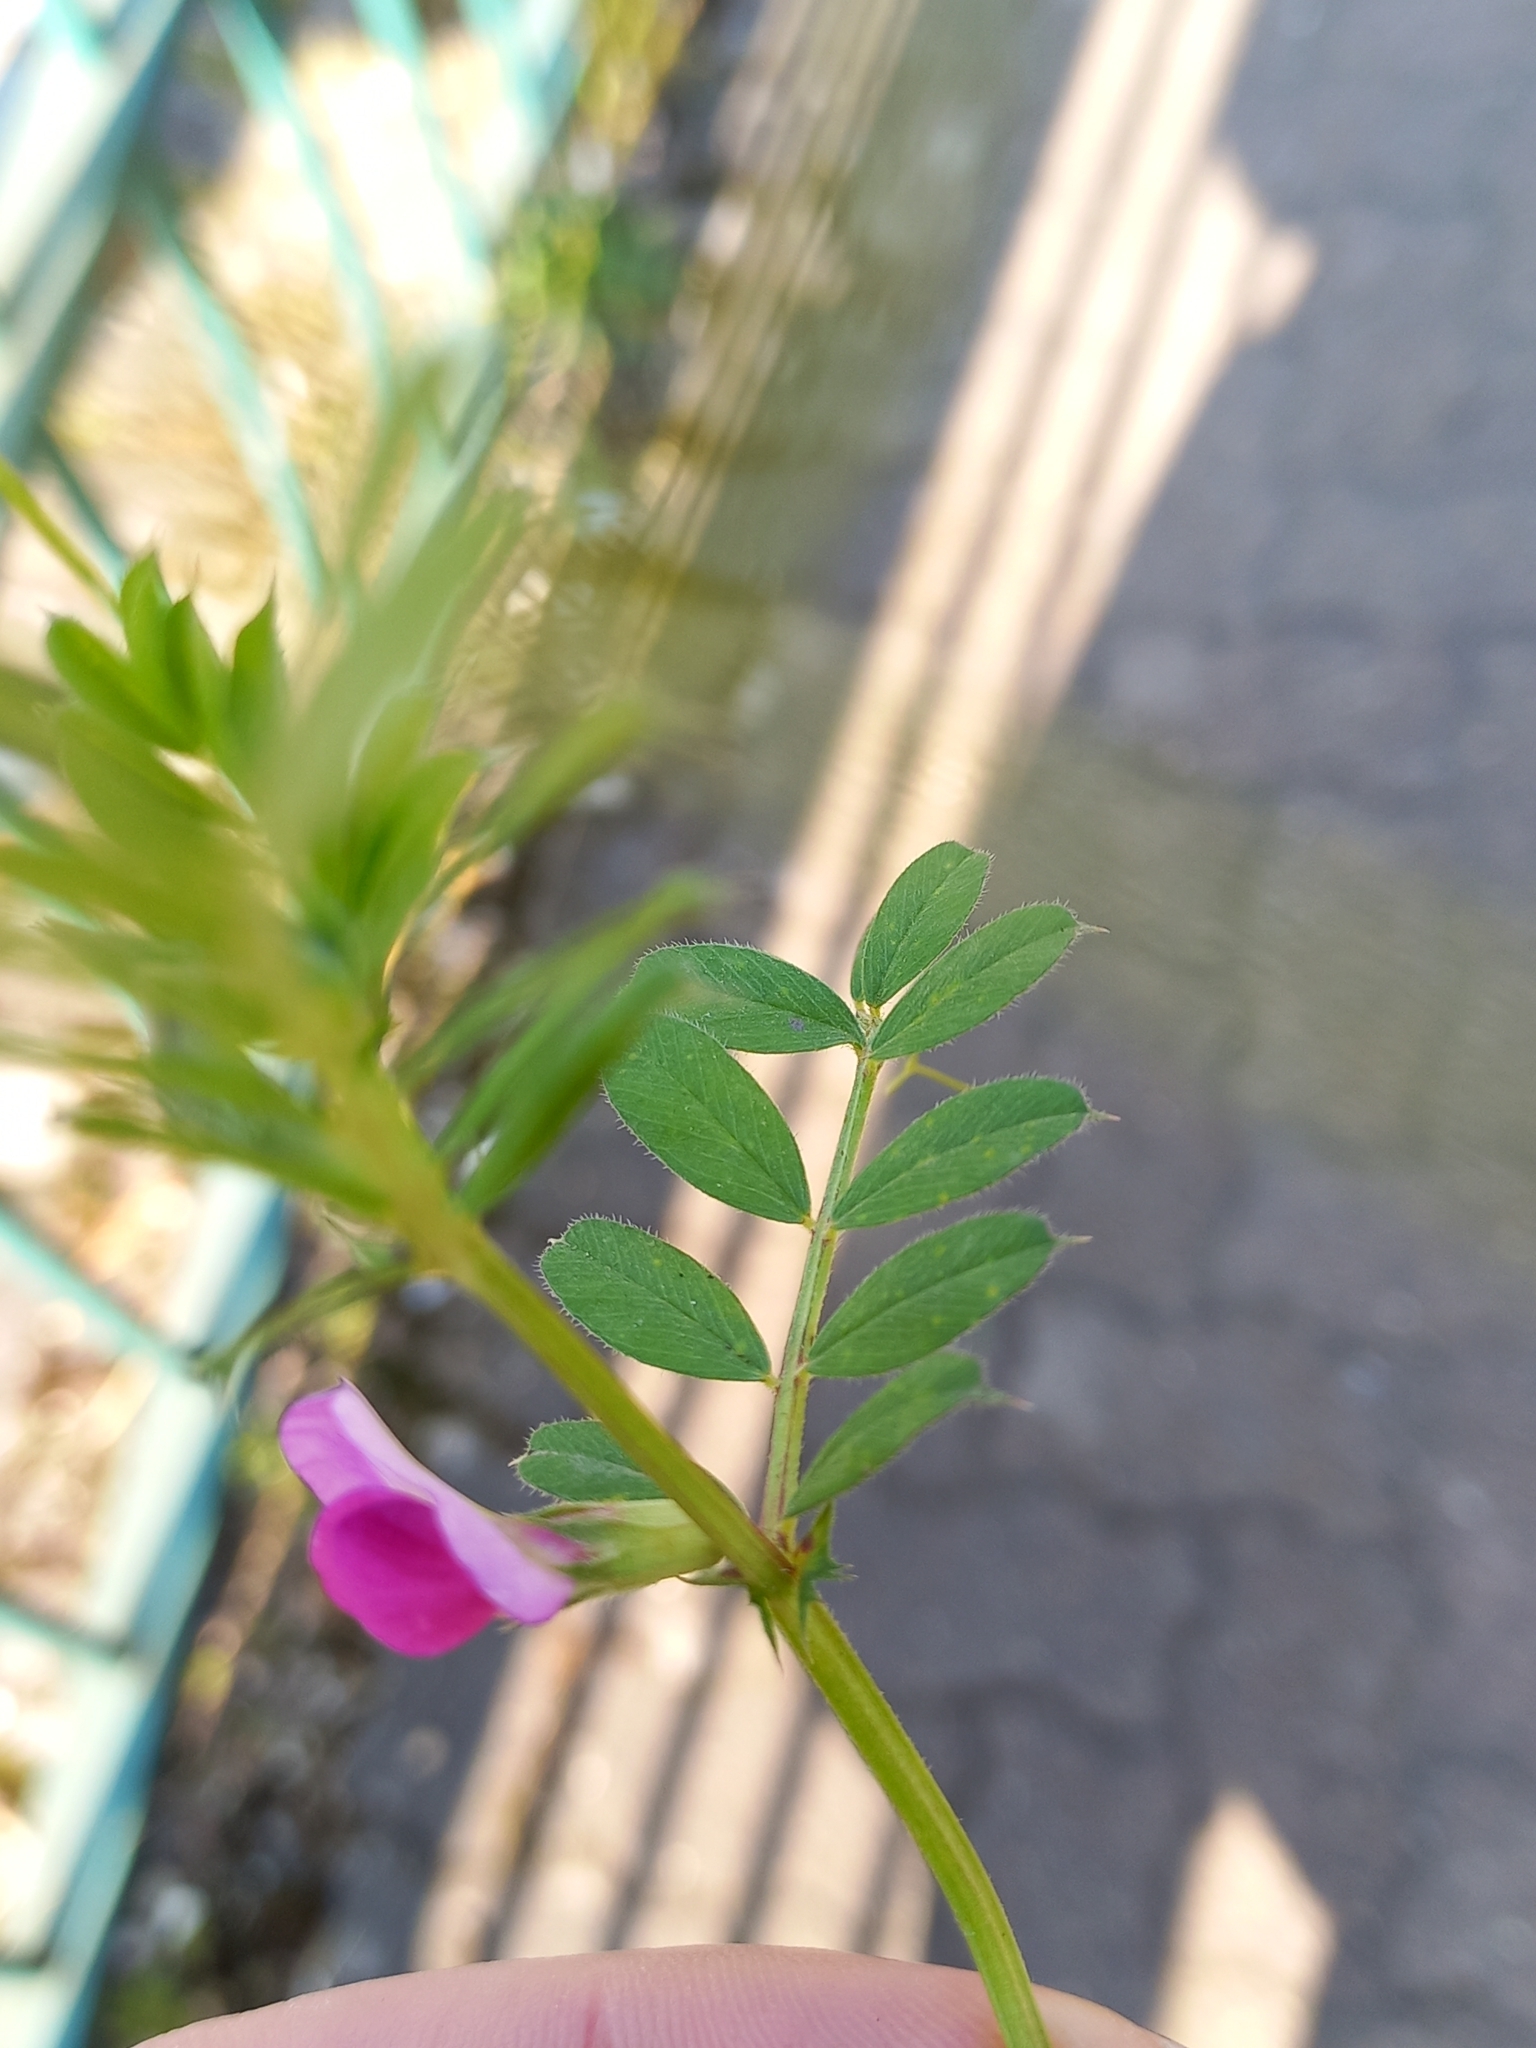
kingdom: Plantae
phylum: Tracheophyta
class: Magnoliopsida
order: Fabales
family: Fabaceae
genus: Vicia
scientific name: Vicia sativa
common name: Garden vetch
